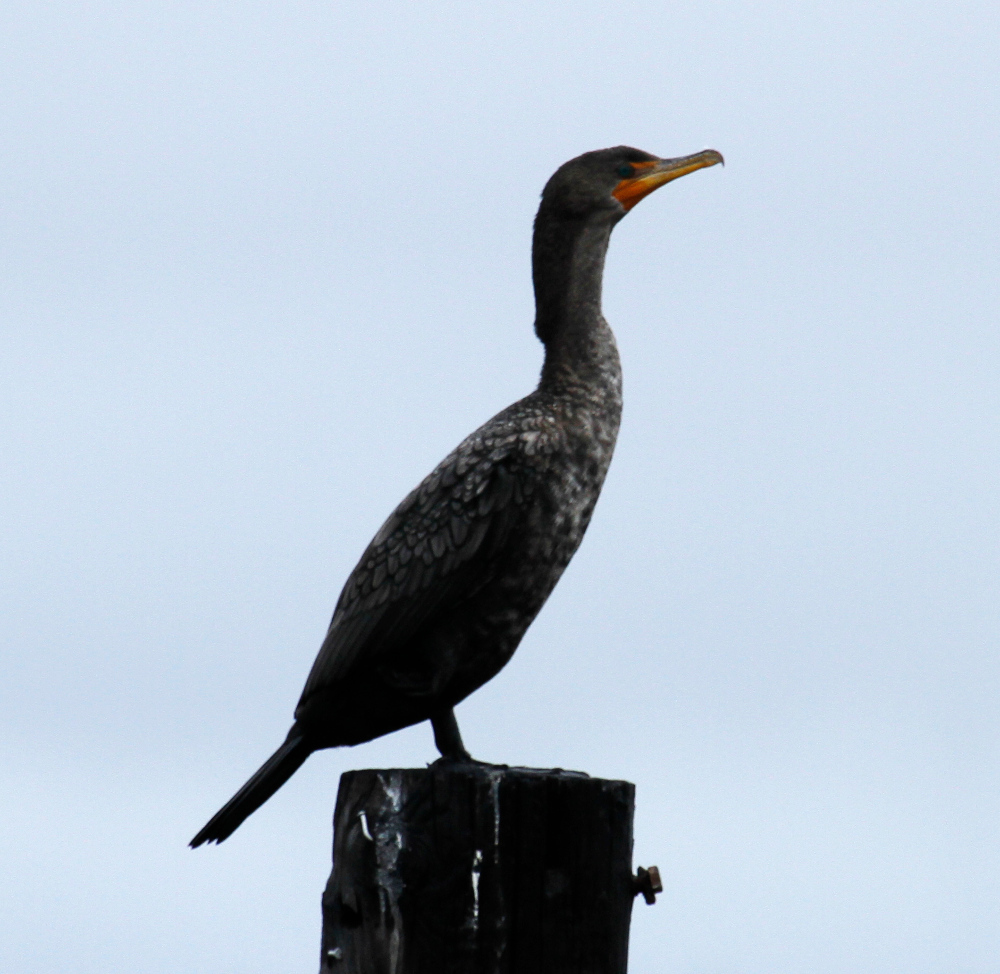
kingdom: Animalia
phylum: Chordata
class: Aves
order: Suliformes
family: Phalacrocoracidae
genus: Phalacrocorax
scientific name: Phalacrocorax auritus
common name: Double-crested cormorant
